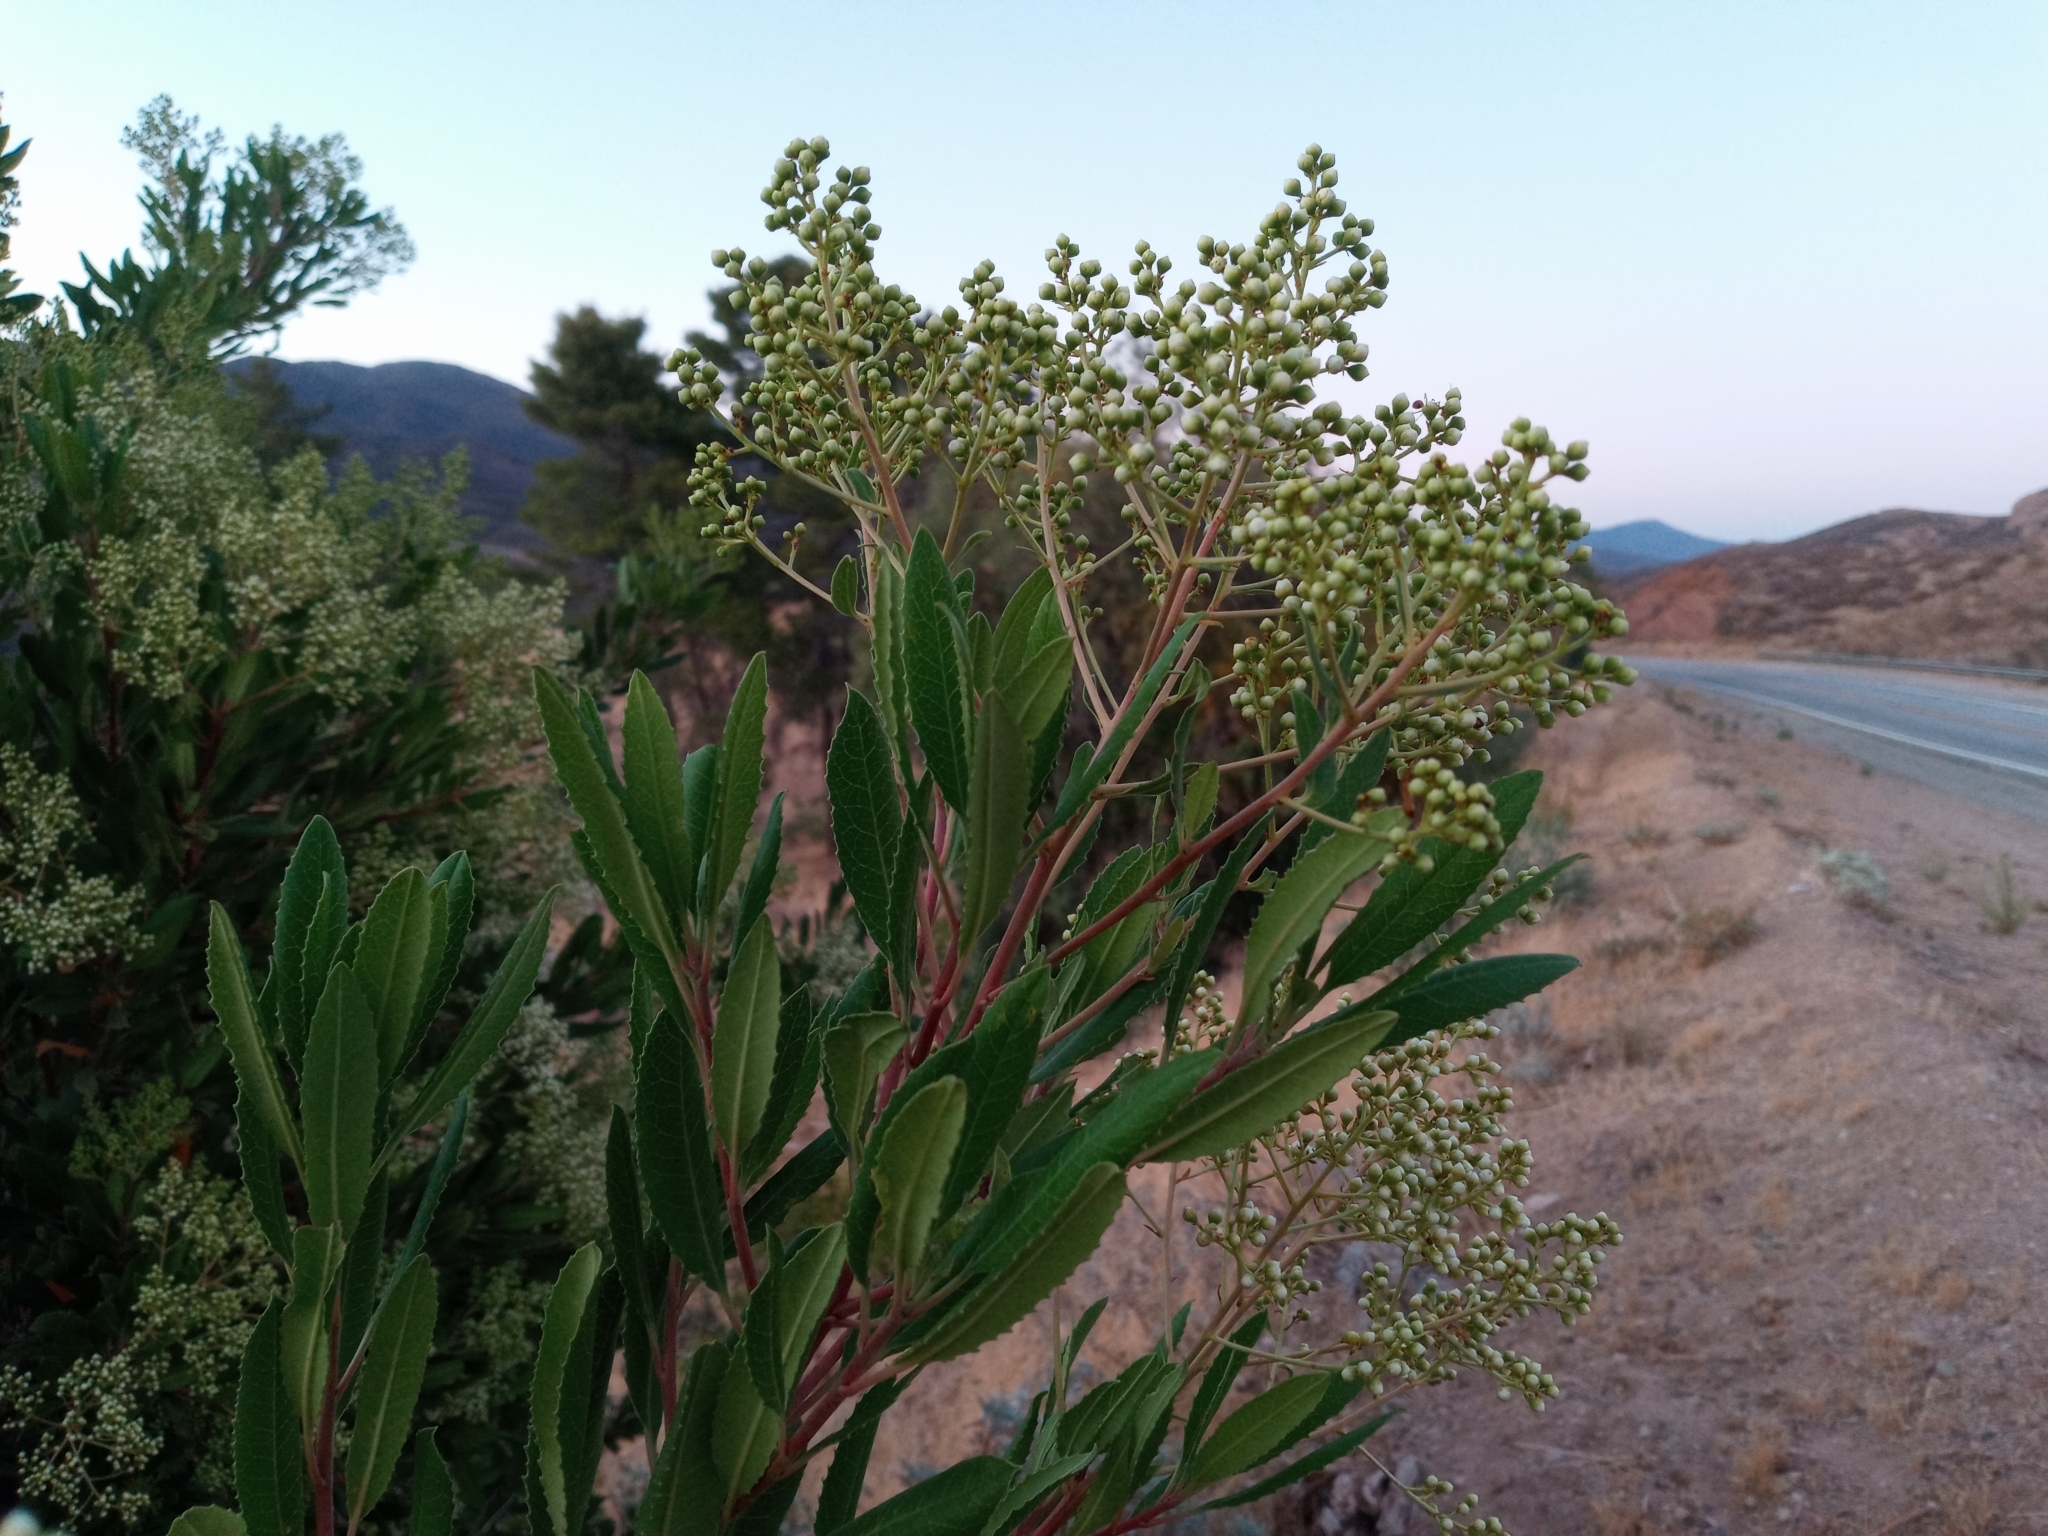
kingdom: Plantae
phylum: Tracheophyta
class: Magnoliopsida
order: Rosales
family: Rosaceae
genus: Heteromeles
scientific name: Heteromeles arbutifolia
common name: California-holly
